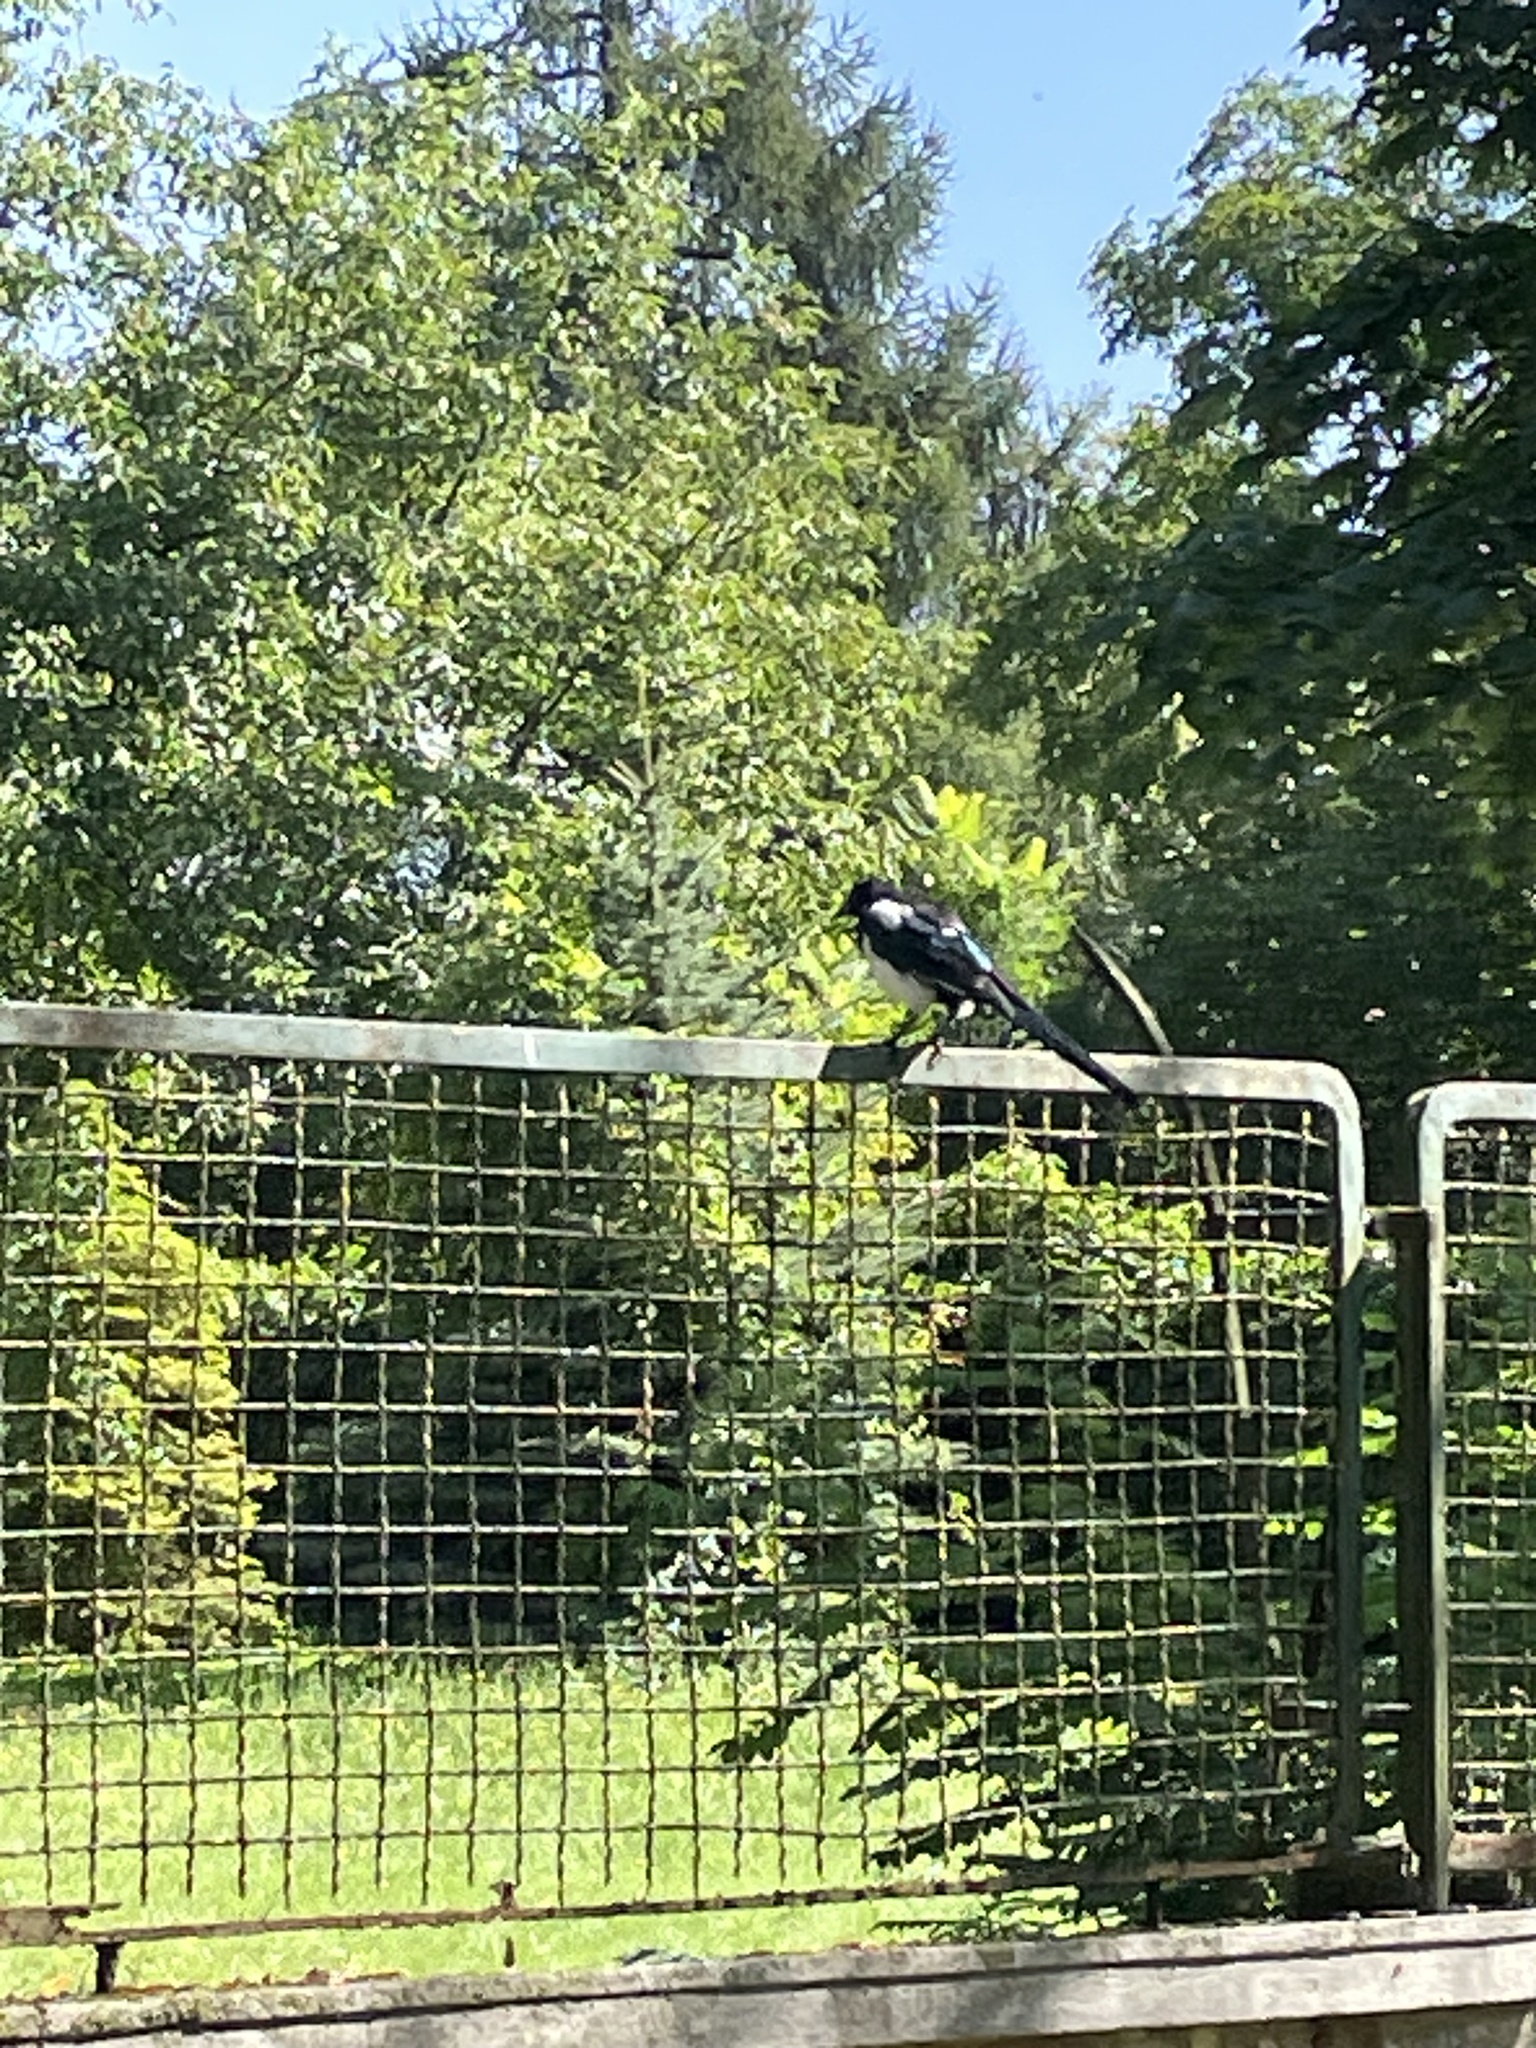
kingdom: Animalia
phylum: Chordata
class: Aves
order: Passeriformes
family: Corvidae
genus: Pica
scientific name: Pica pica
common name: Eurasian magpie
